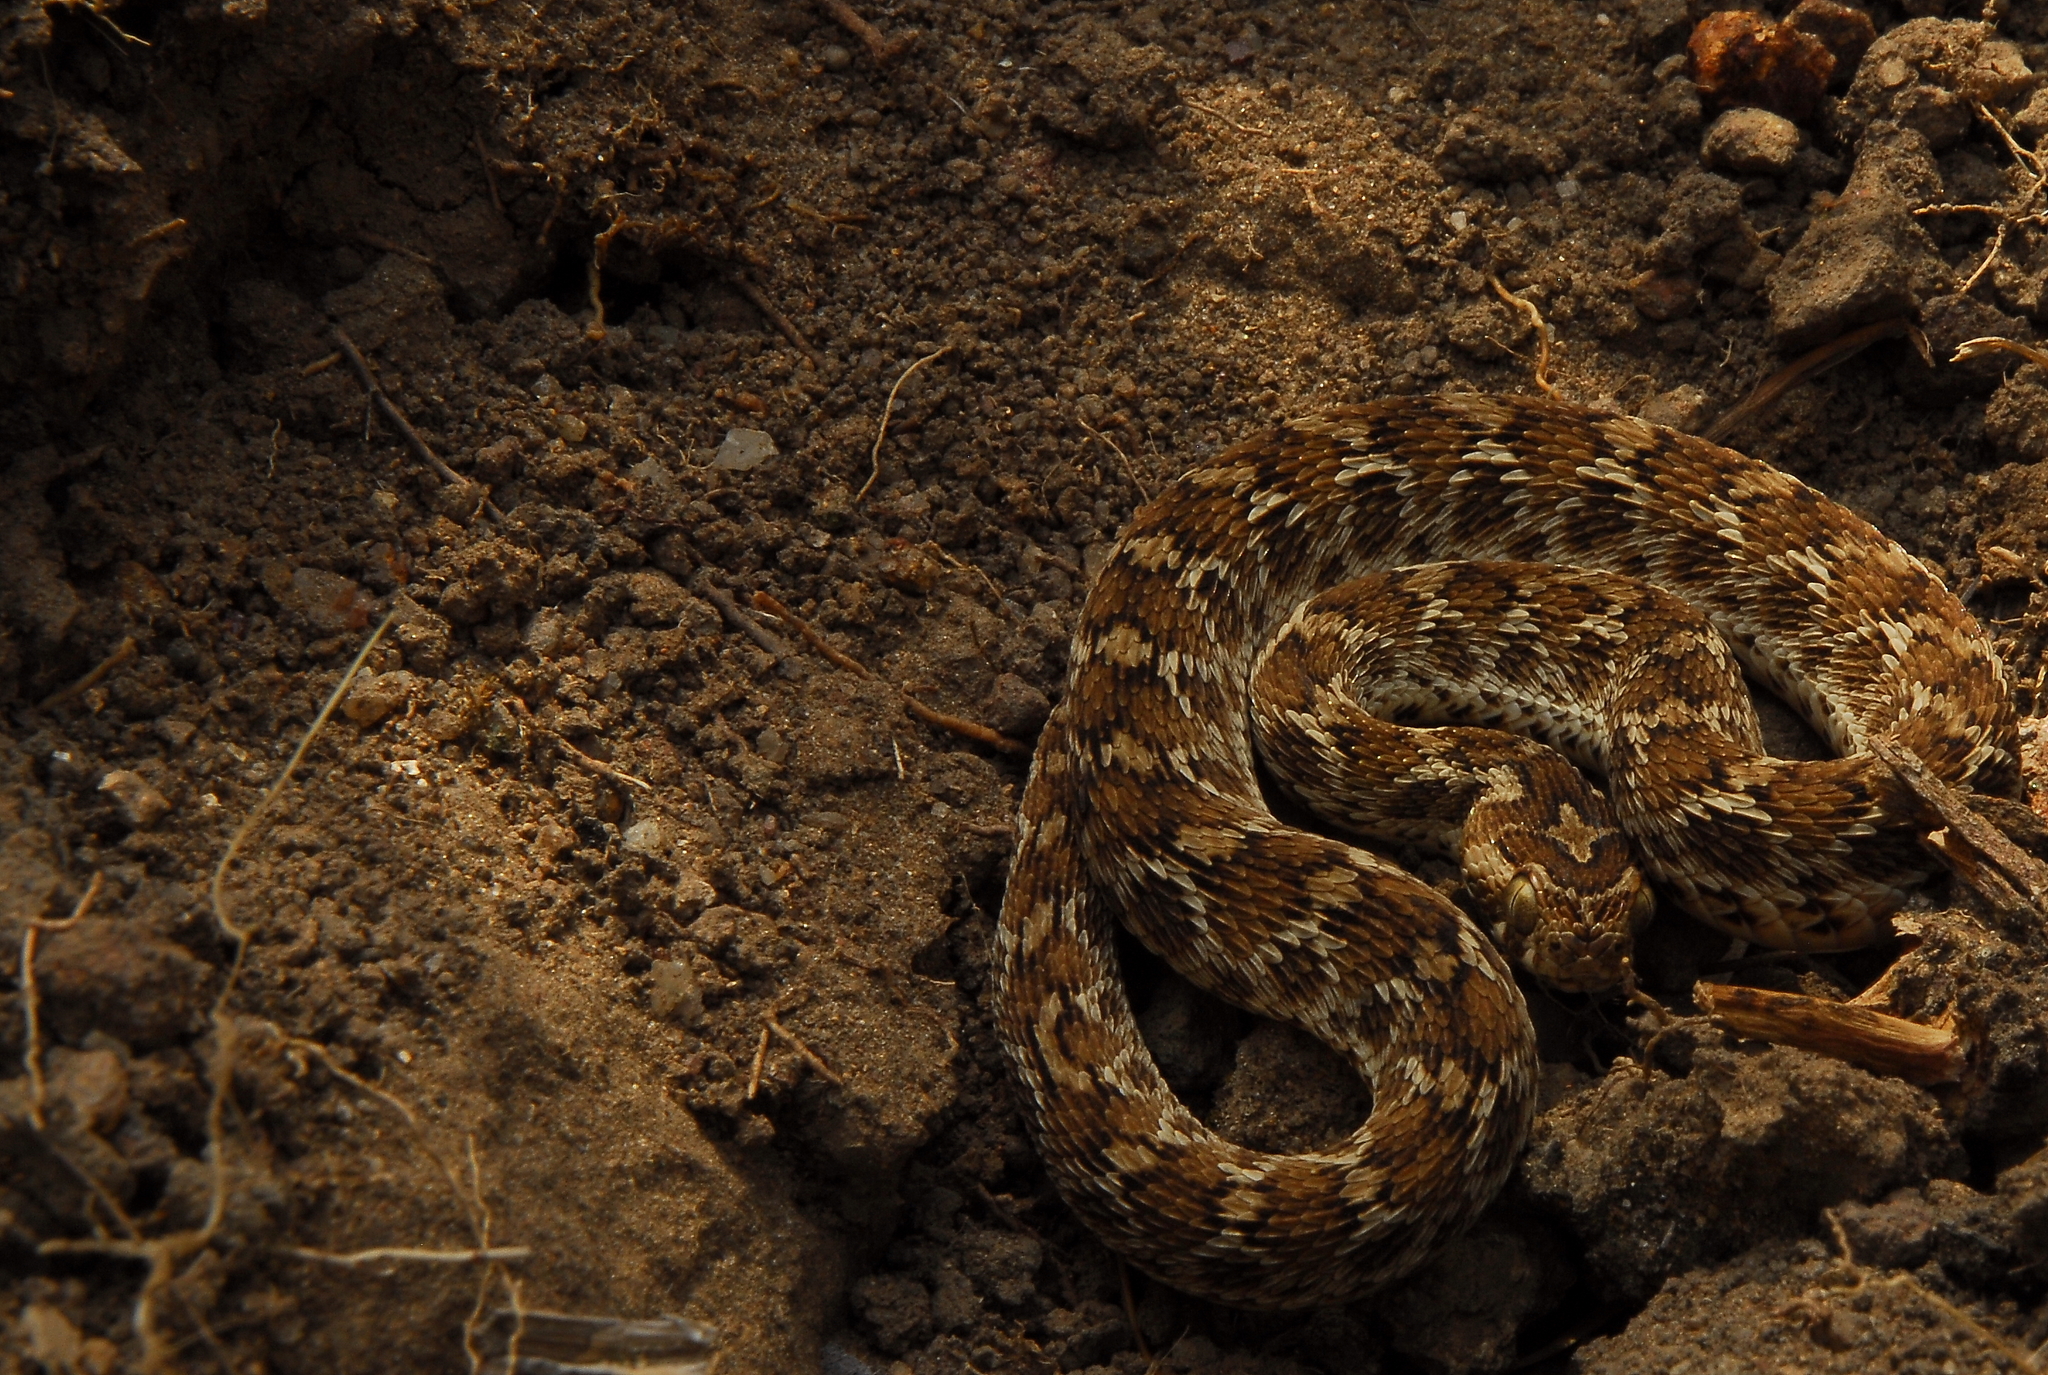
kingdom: Animalia
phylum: Chordata
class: Squamata
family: Viperidae
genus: Echis
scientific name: Echis carinatus
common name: Saw-scaled viper
